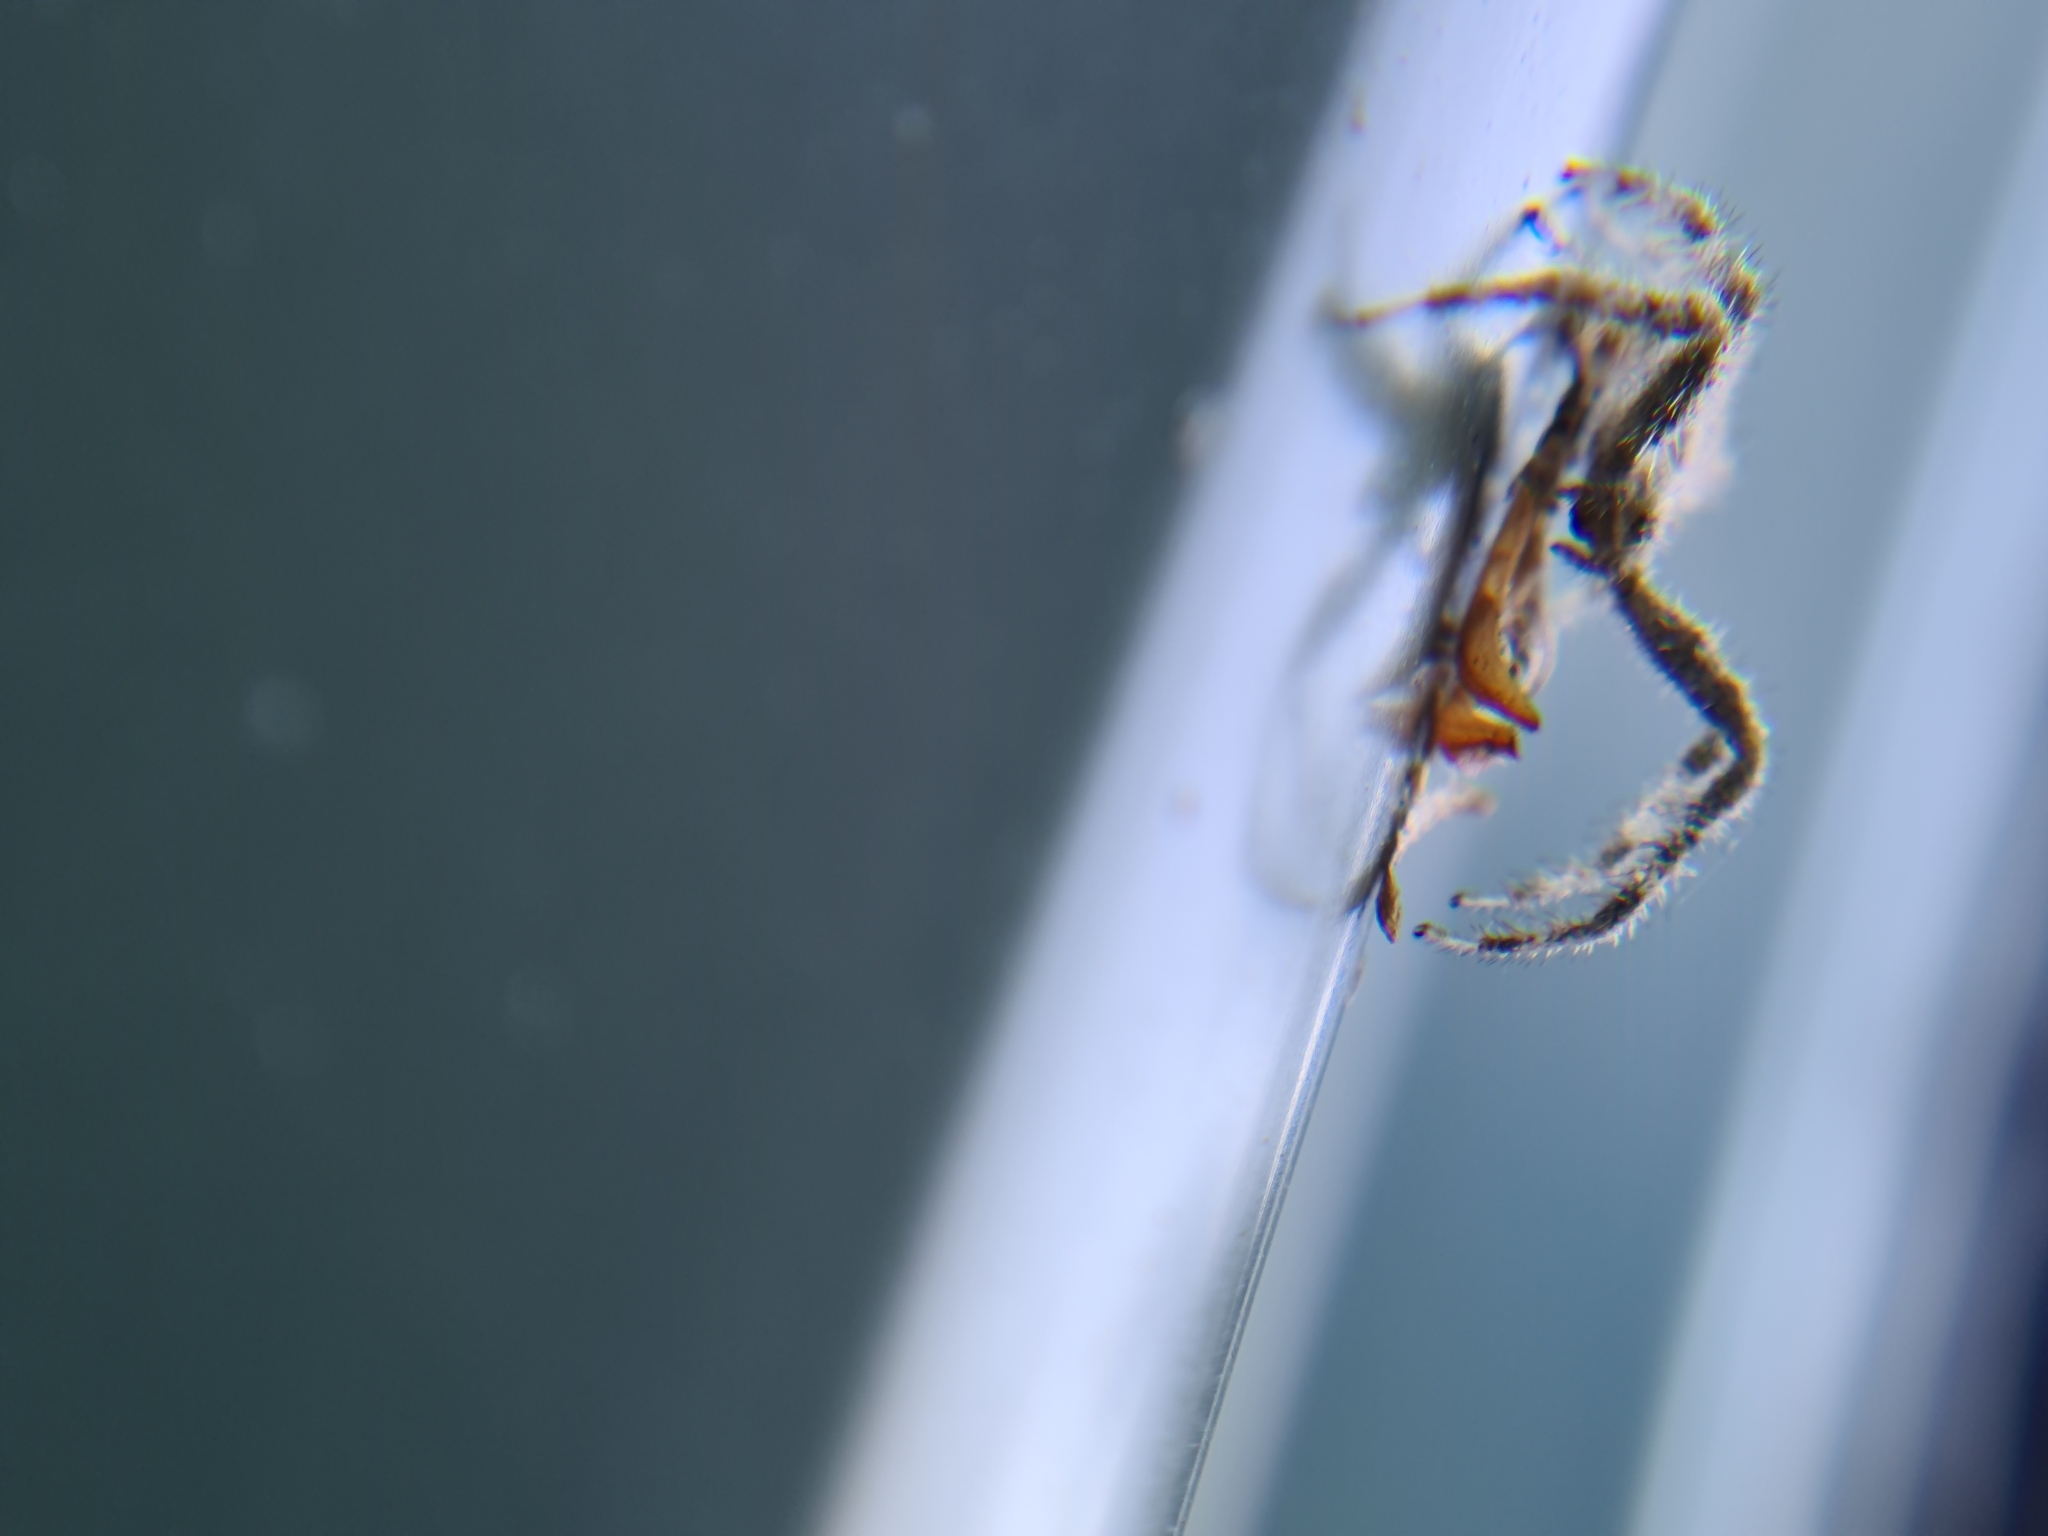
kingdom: Animalia
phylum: Arthropoda
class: Arachnida
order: Araneae
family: Thomisidae
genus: Sidymella
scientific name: Sidymella hirsuta
